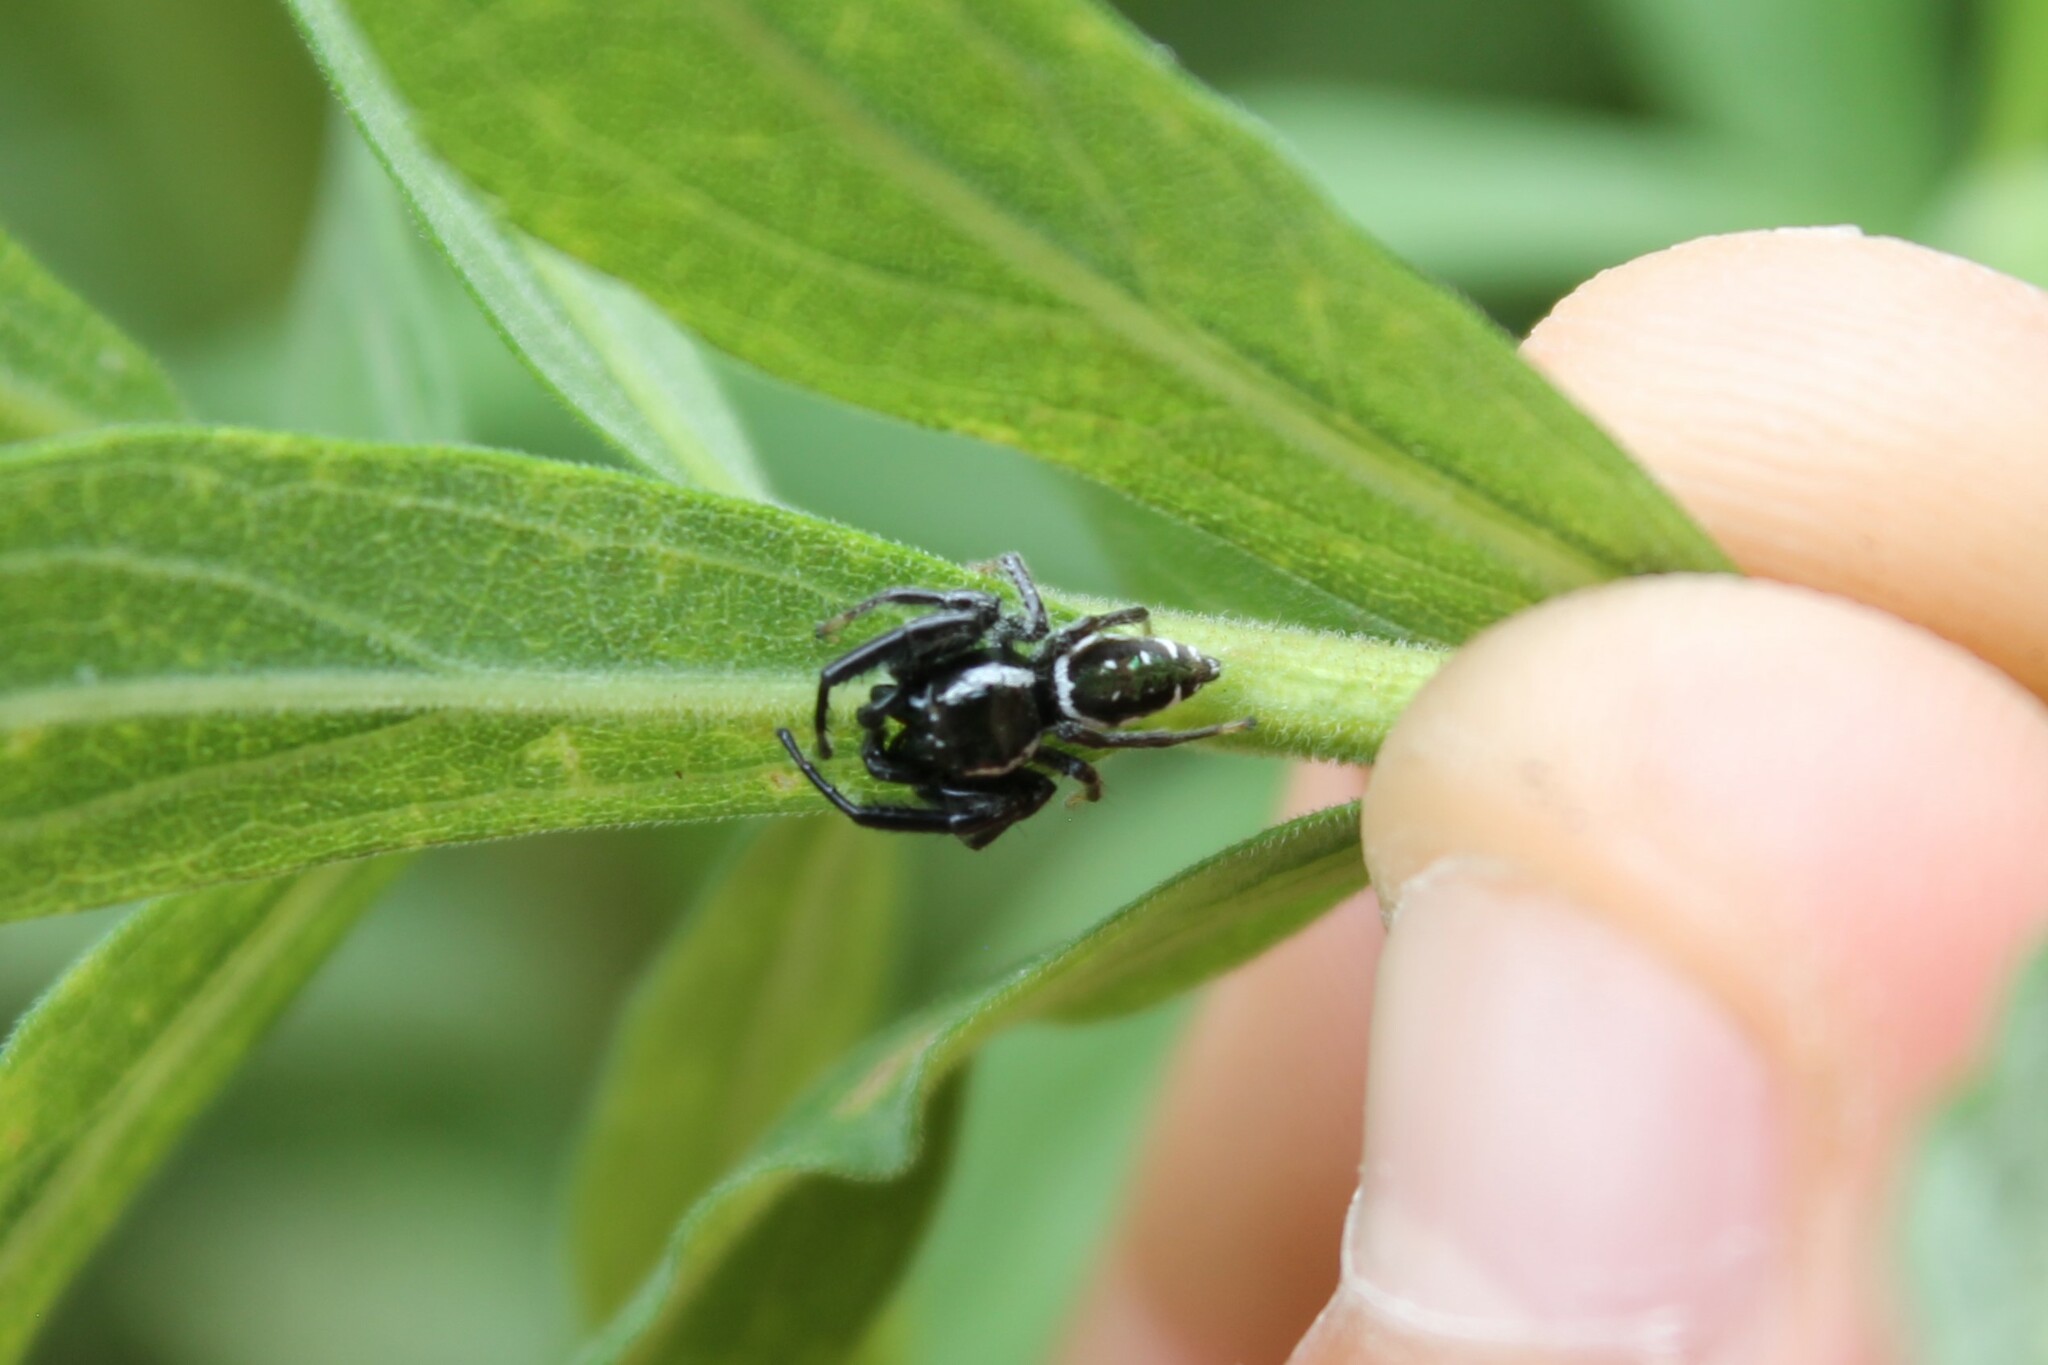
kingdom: Animalia
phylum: Arthropoda
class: Arachnida
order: Araneae
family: Salticidae
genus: Paraphidippus
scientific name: Paraphidippus aurantius
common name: Jumping spiders
